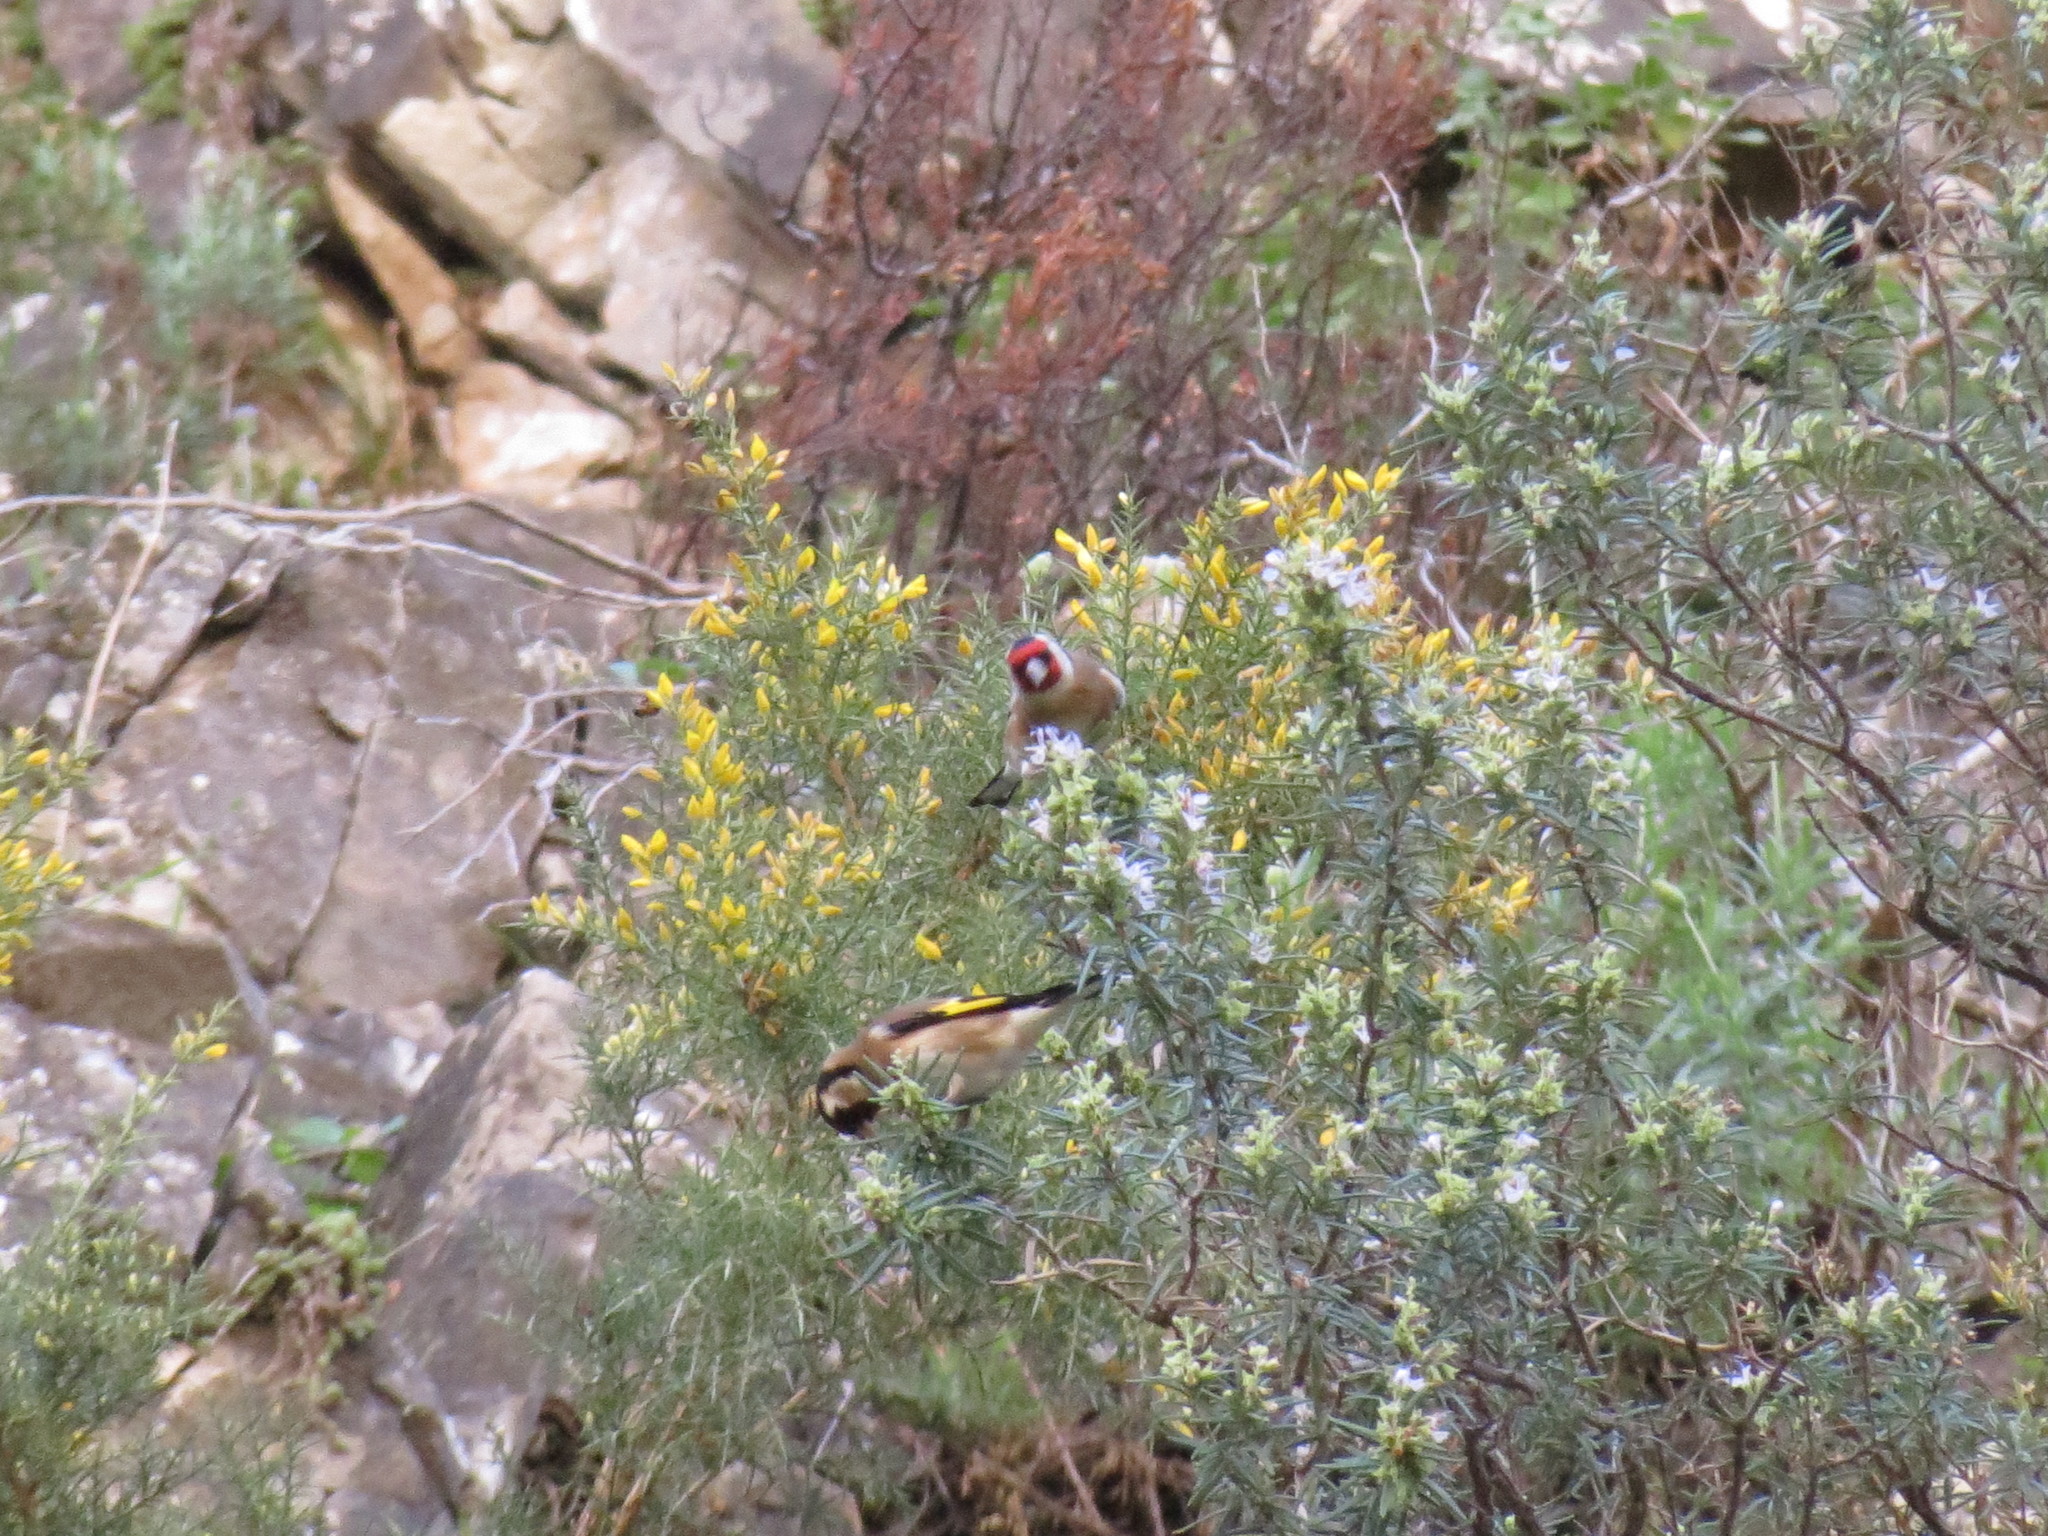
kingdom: Animalia
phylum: Chordata
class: Aves
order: Passeriformes
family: Fringillidae
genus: Carduelis
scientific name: Carduelis carduelis
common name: European goldfinch
